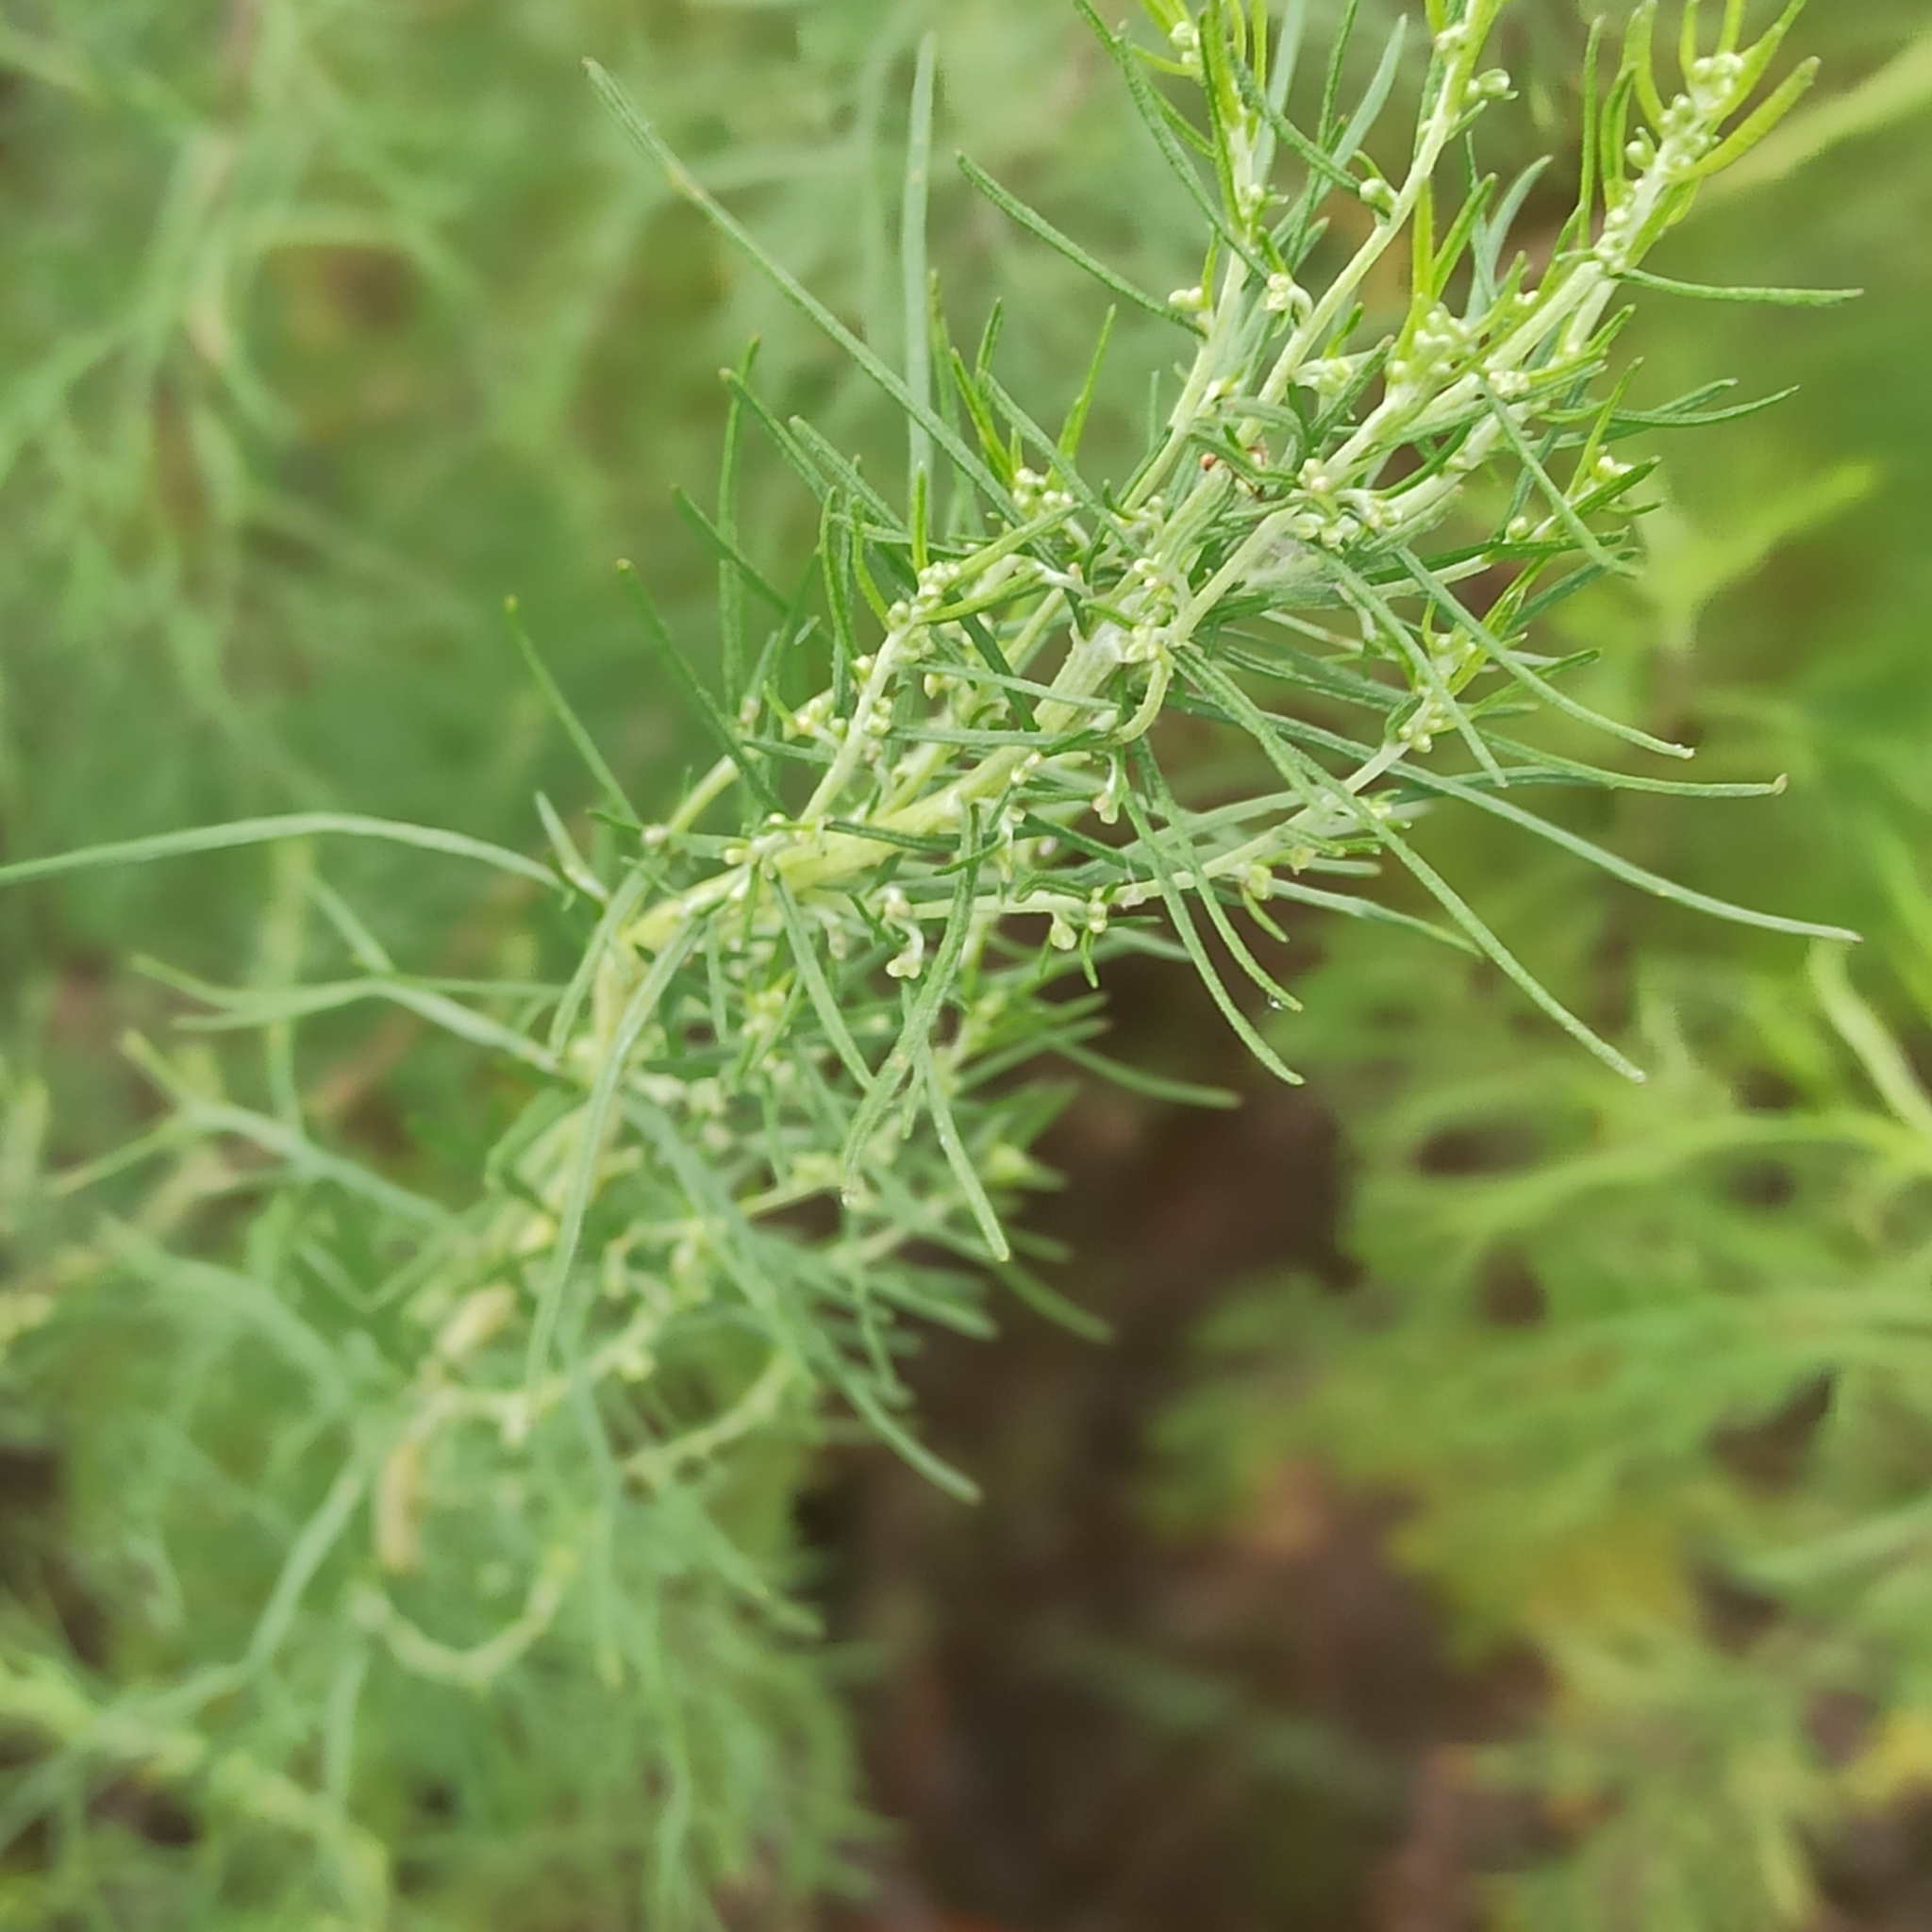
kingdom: Plantae
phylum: Tracheophyta
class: Magnoliopsida
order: Asterales
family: Asteraceae
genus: Artemisia
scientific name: Artemisia abrotanum
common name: Southernwood
